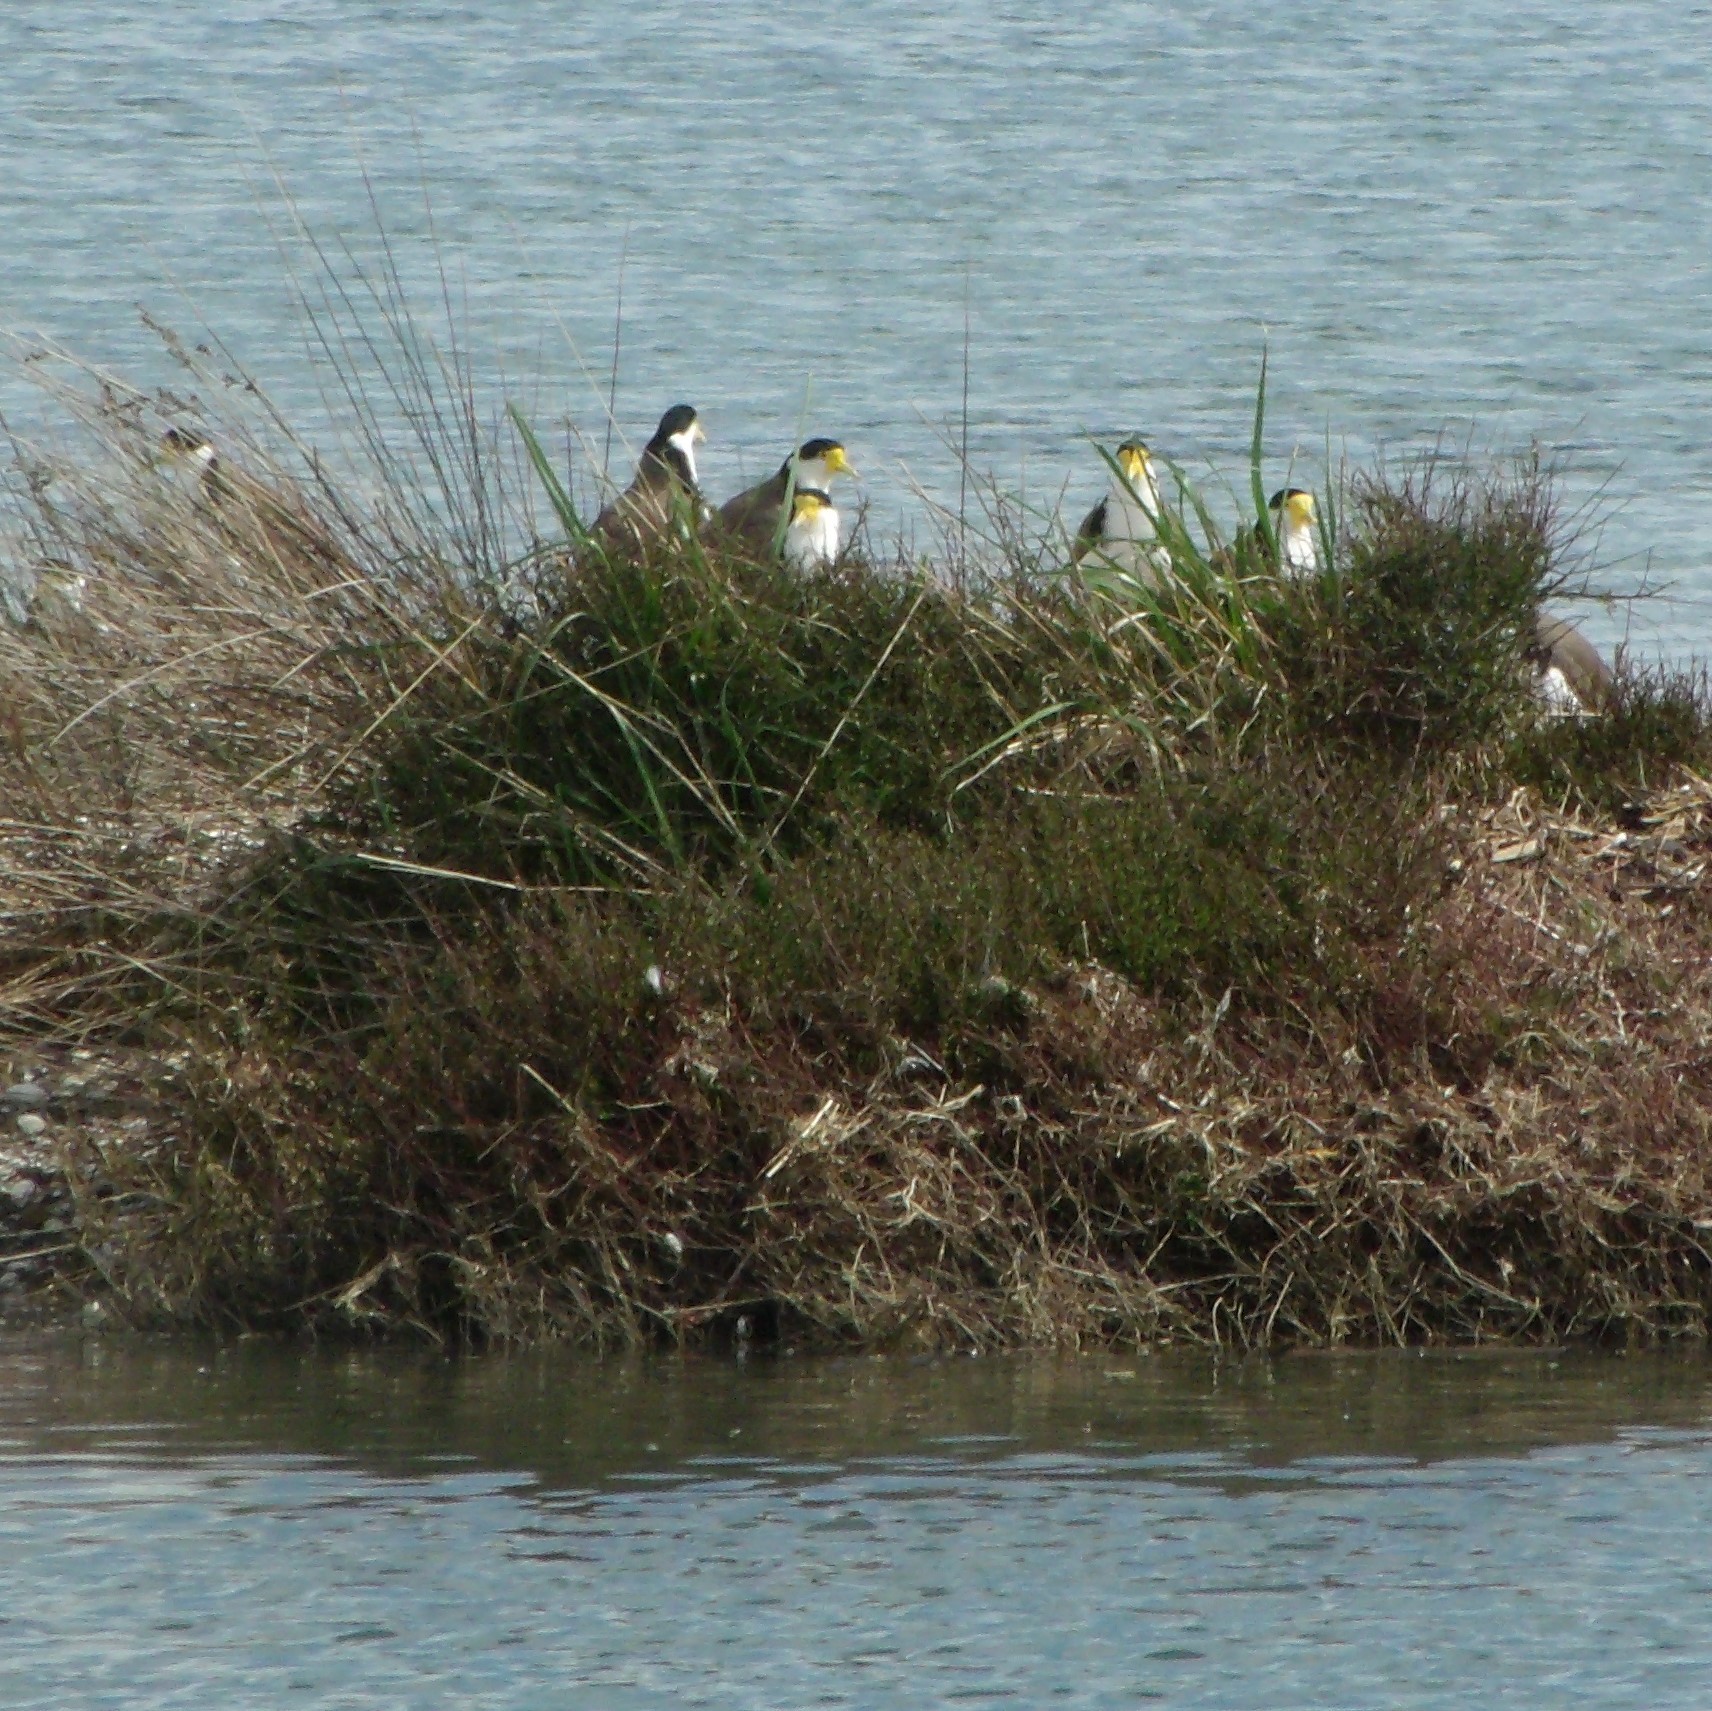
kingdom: Animalia
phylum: Chordata
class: Aves
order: Charadriiformes
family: Charadriidae
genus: Vanellus
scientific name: Vanellus miles
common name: Masked lapwing
